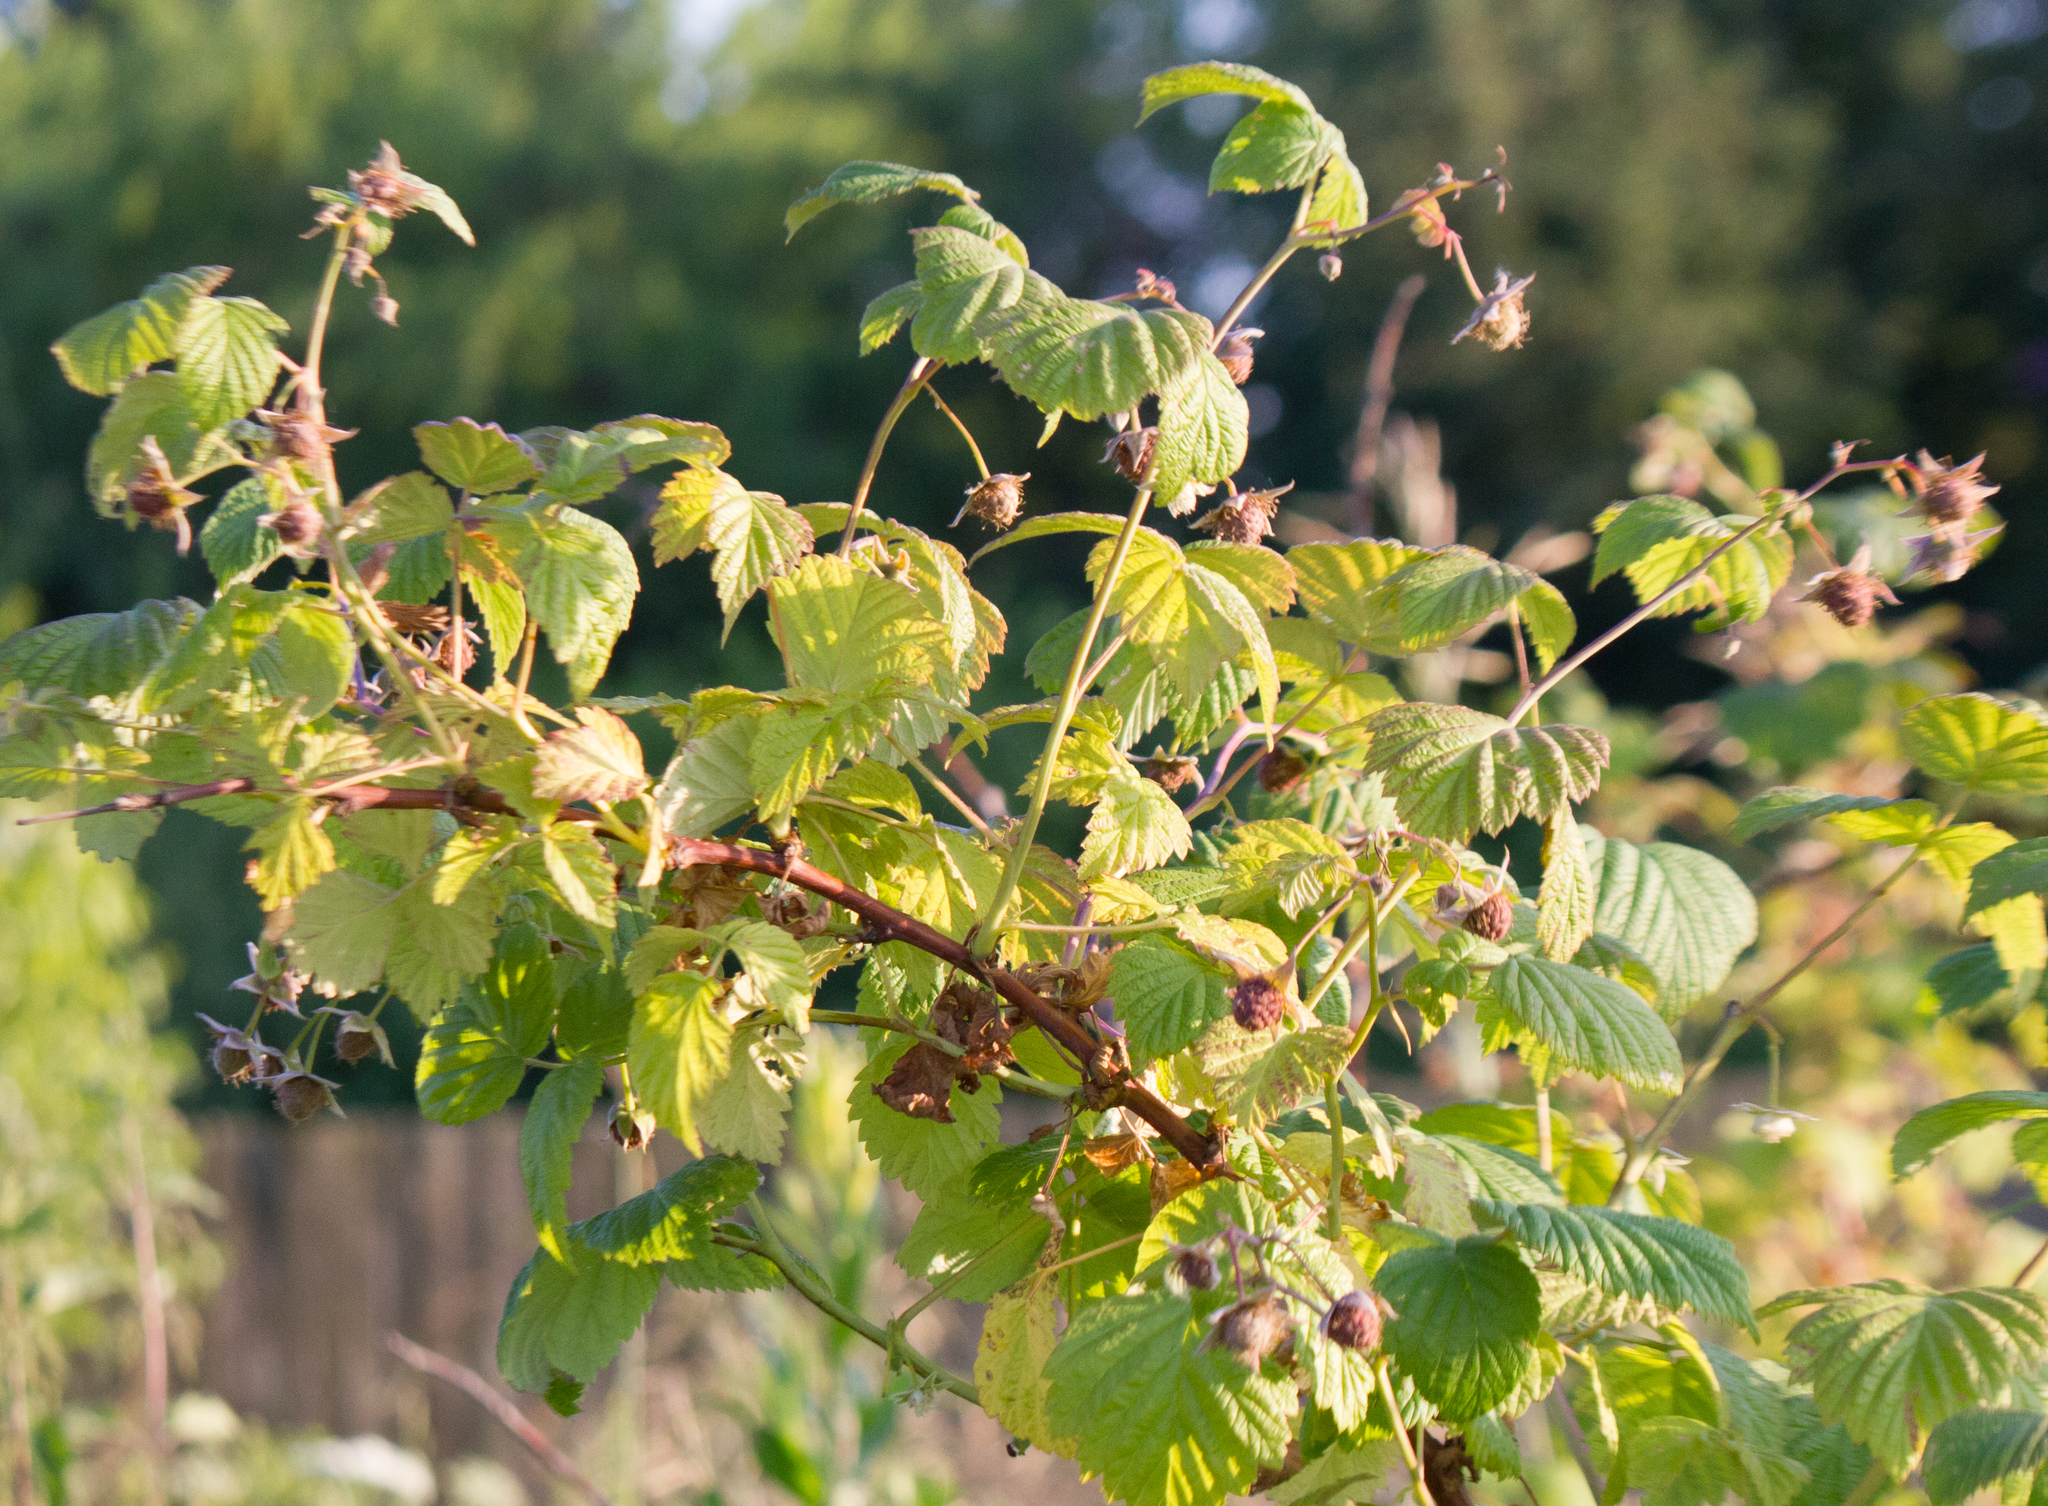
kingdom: Plantae
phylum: Tracheophyta
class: Magnoliopsida
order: Rosales
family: Rosaceae
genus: Rubus
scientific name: Rubus idaeus
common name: Raspberry
